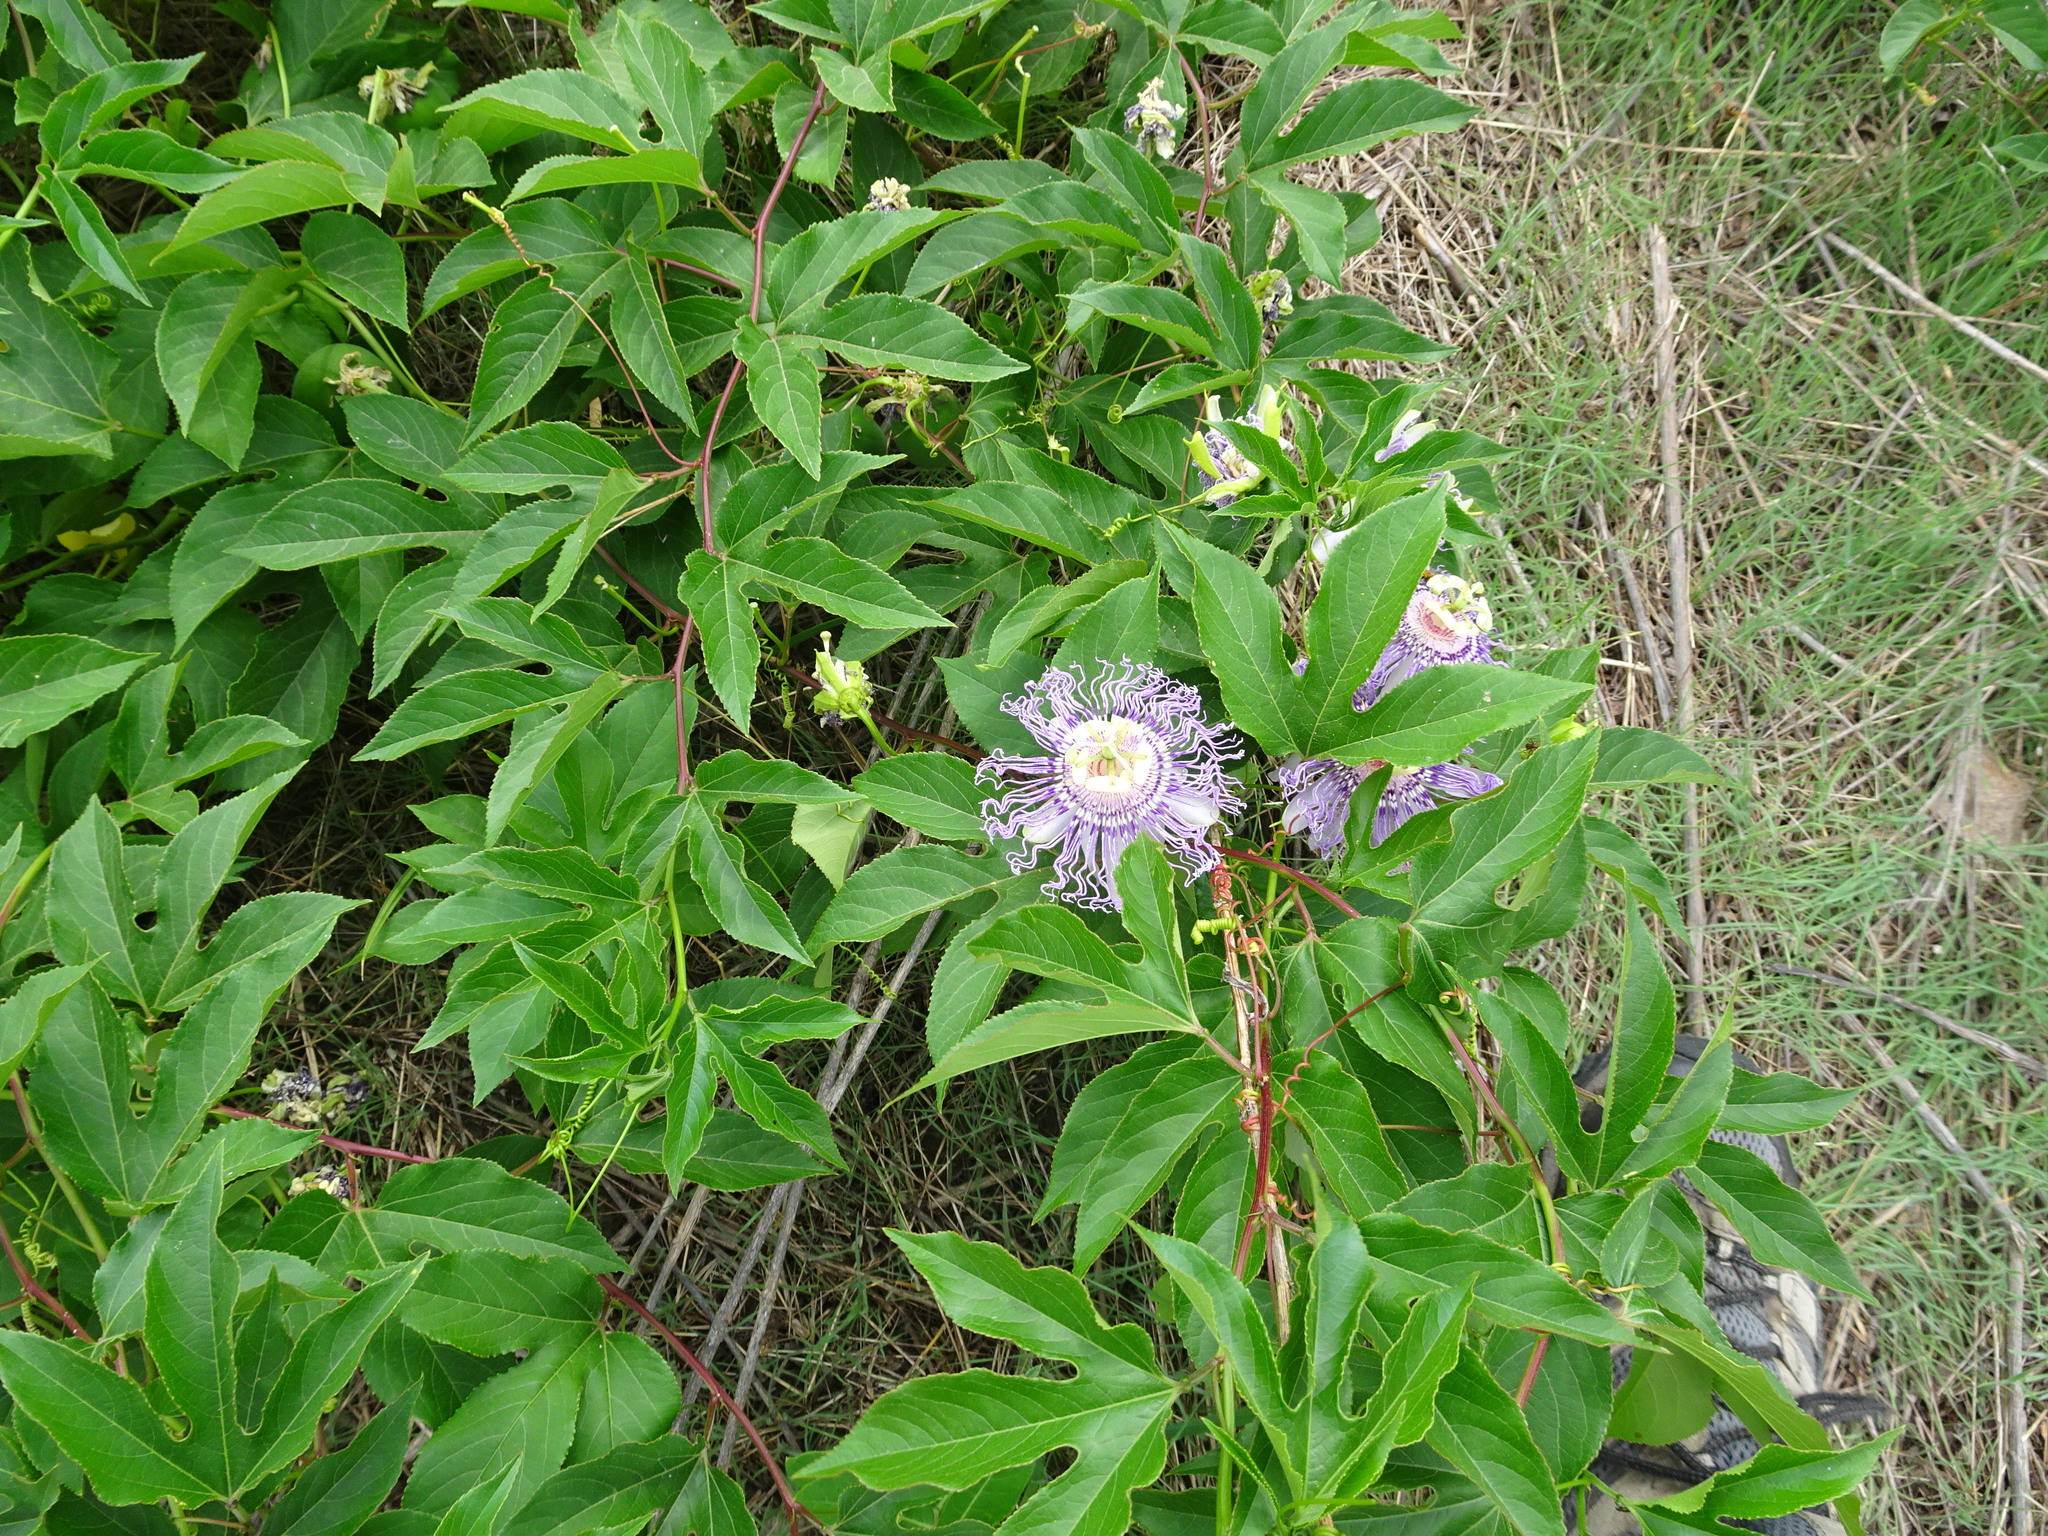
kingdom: Plantae
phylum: Tracheophyta
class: Magnoliopsida
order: Malpighiales
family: Passifloraceae
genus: Passiflora
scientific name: Passiflora incarnata
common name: Apricot-vine
